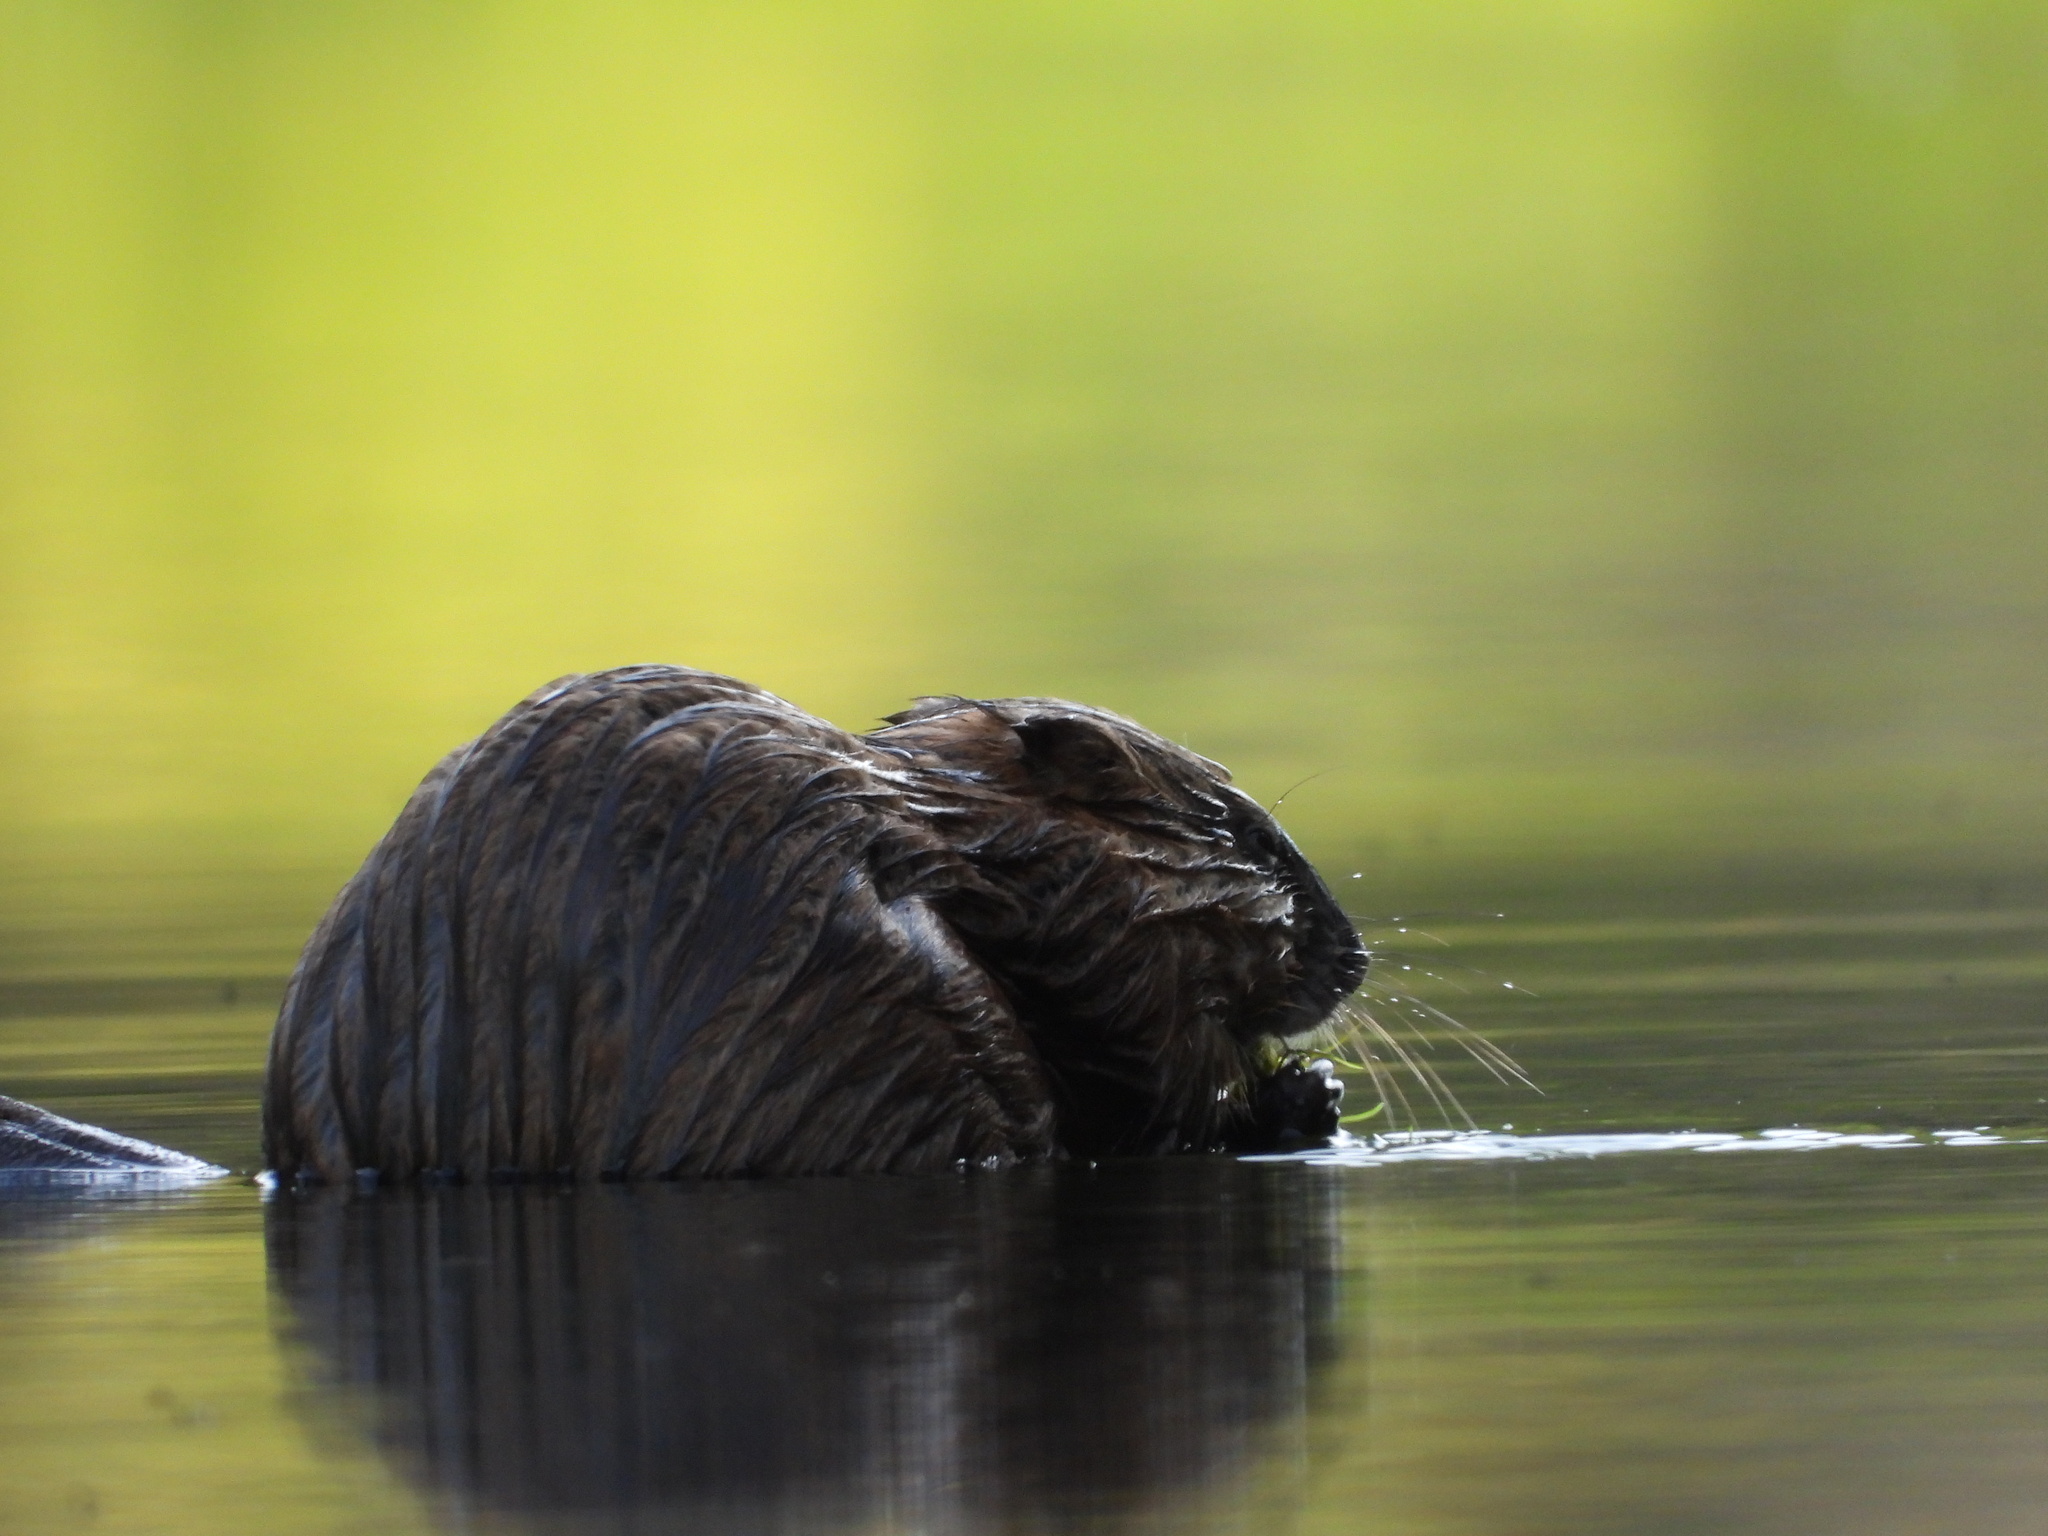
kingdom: Animalia
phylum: Chordata
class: Mammalia
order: Rodentia
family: Cricetidae
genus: Ondatra
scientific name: Ondatra zibethicus
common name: Muskrat
